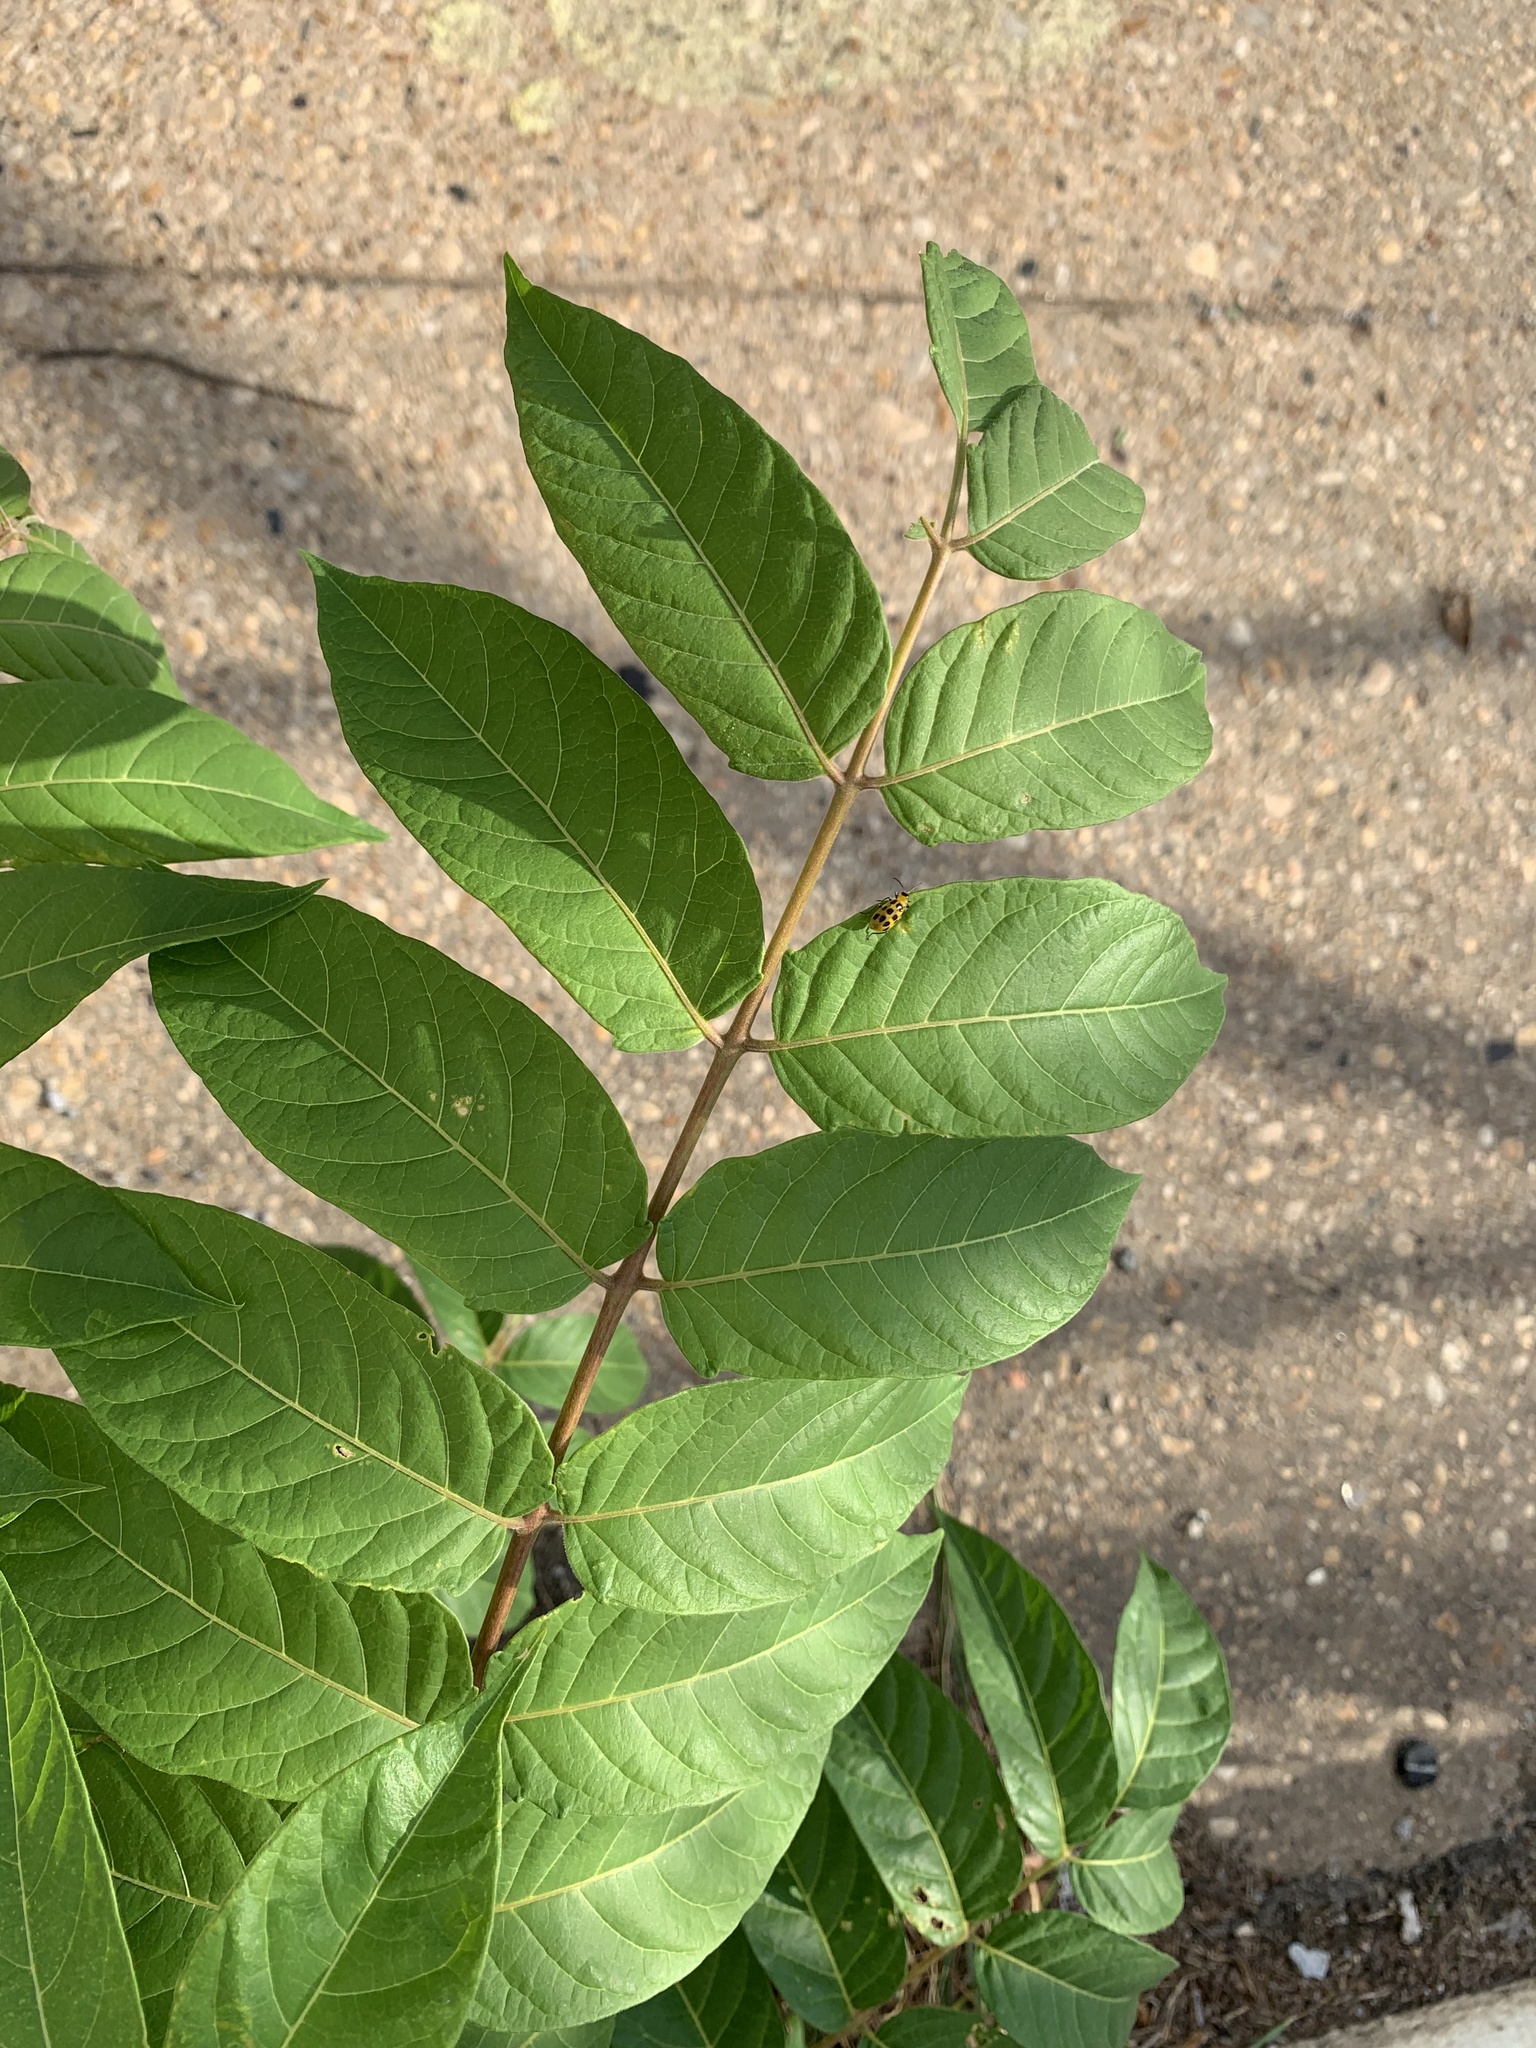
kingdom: Plantae
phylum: Tracheophyta
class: Magnoliopsida
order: Sapindales
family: Simaroubaceae
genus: Ailanthus
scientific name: Ailanthus altissima
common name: Tree-of-heaven
